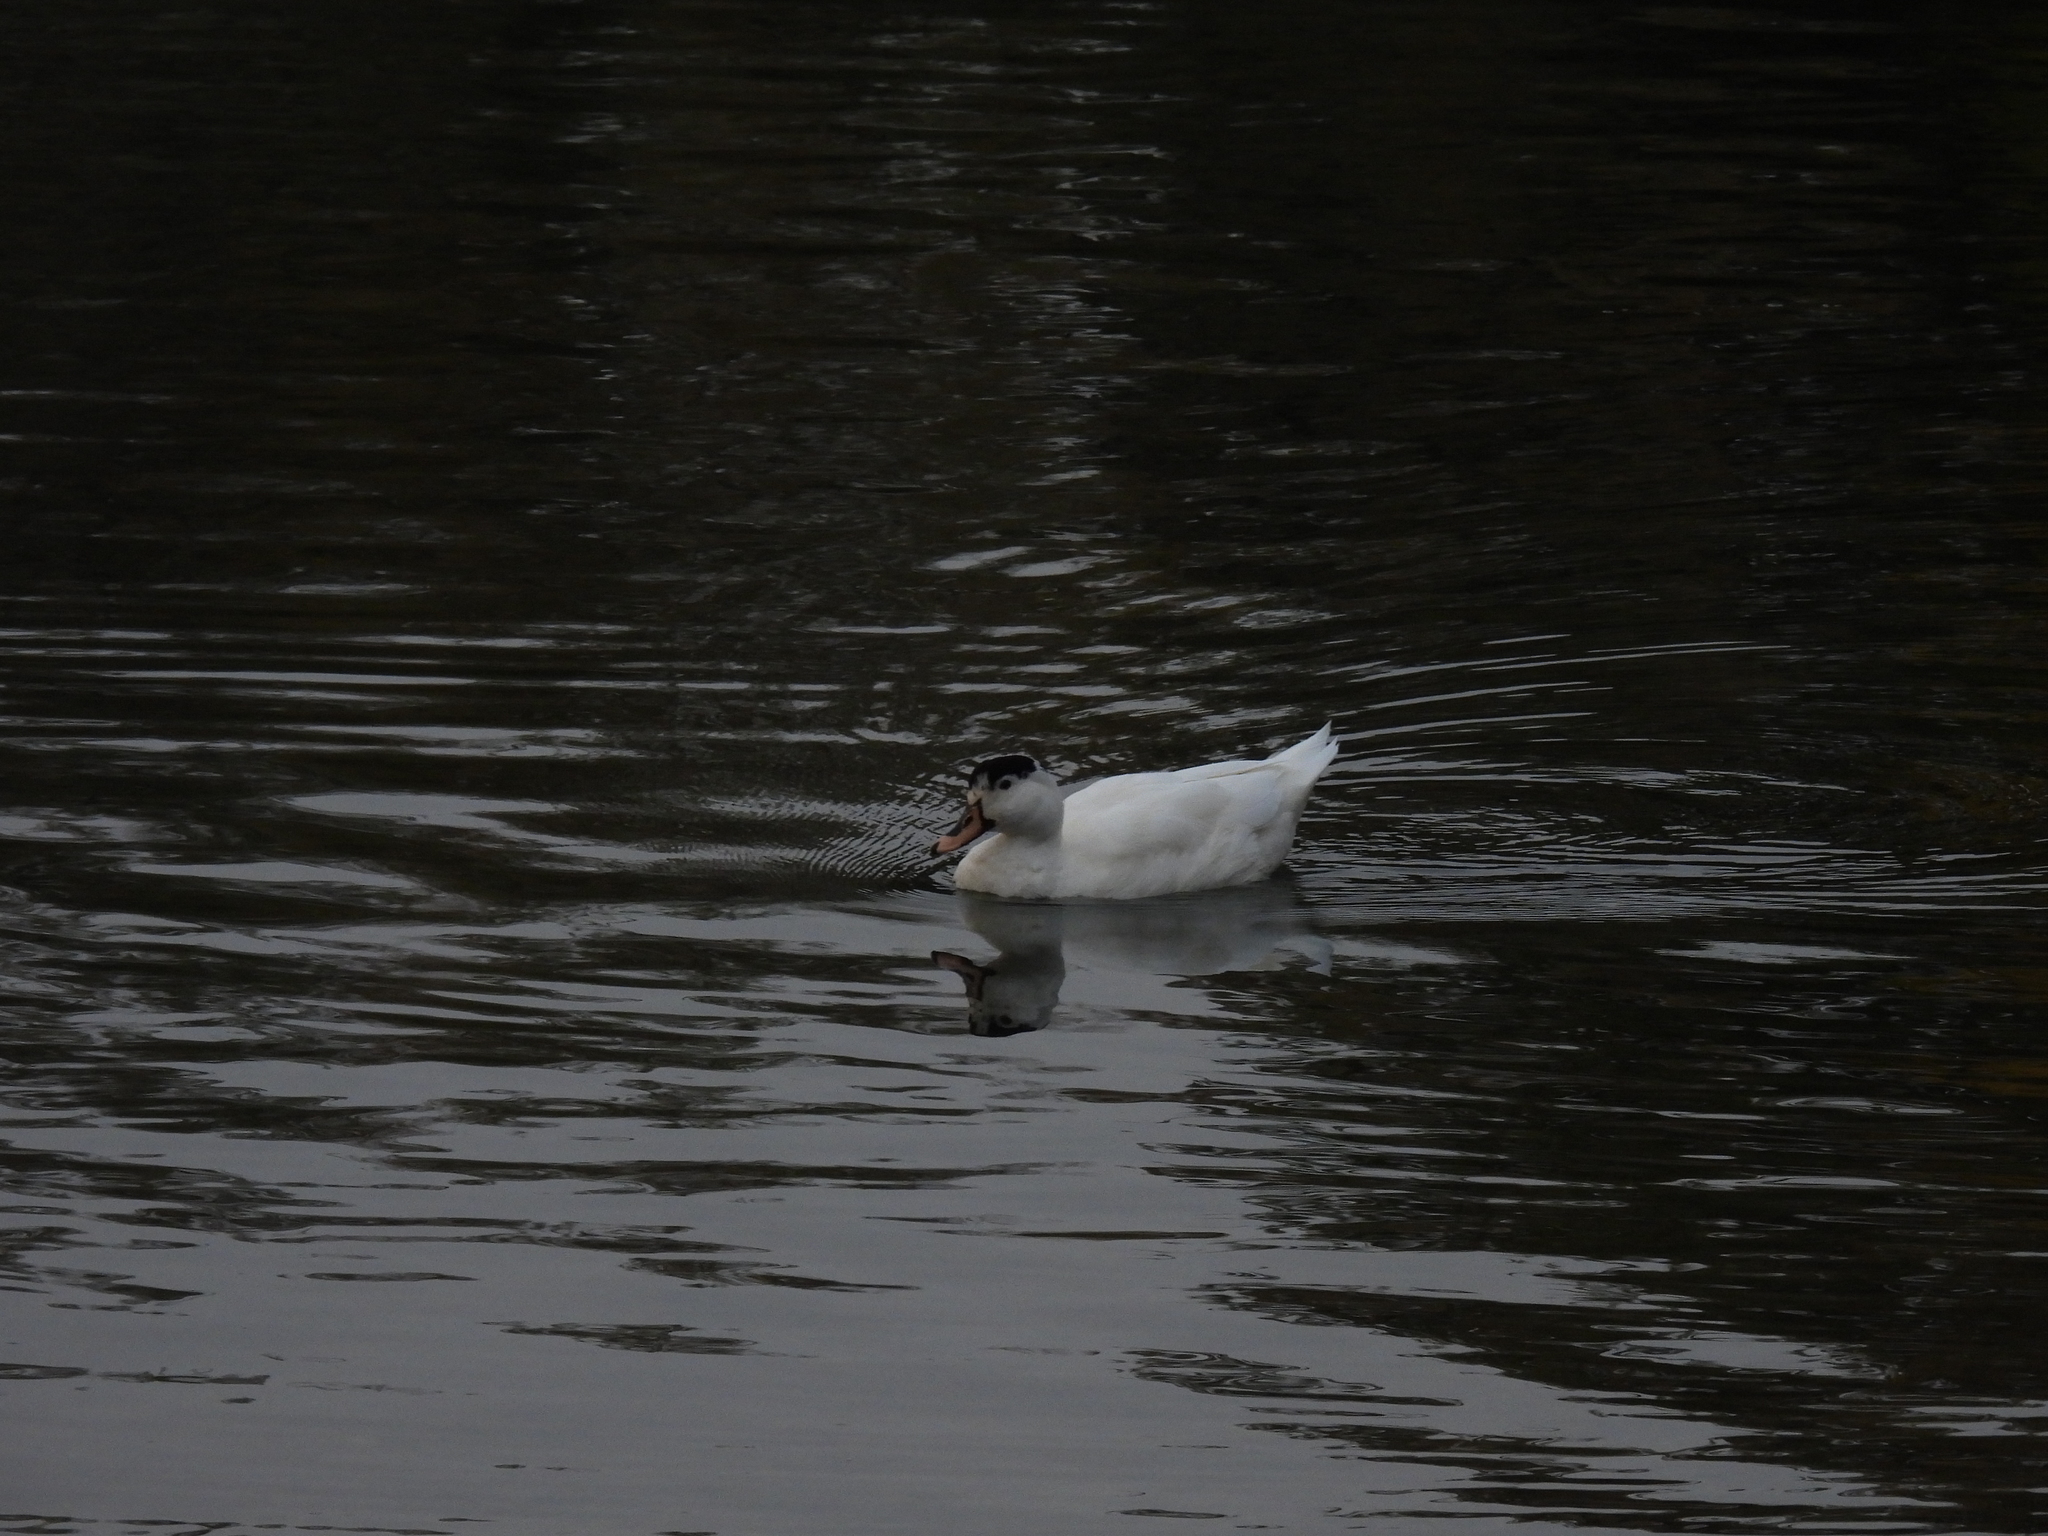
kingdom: Animalia
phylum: Chordata
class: Aves
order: Anseriformes
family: Anatidae
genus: Anas
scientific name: Anas platyrhynchos
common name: Mallard
